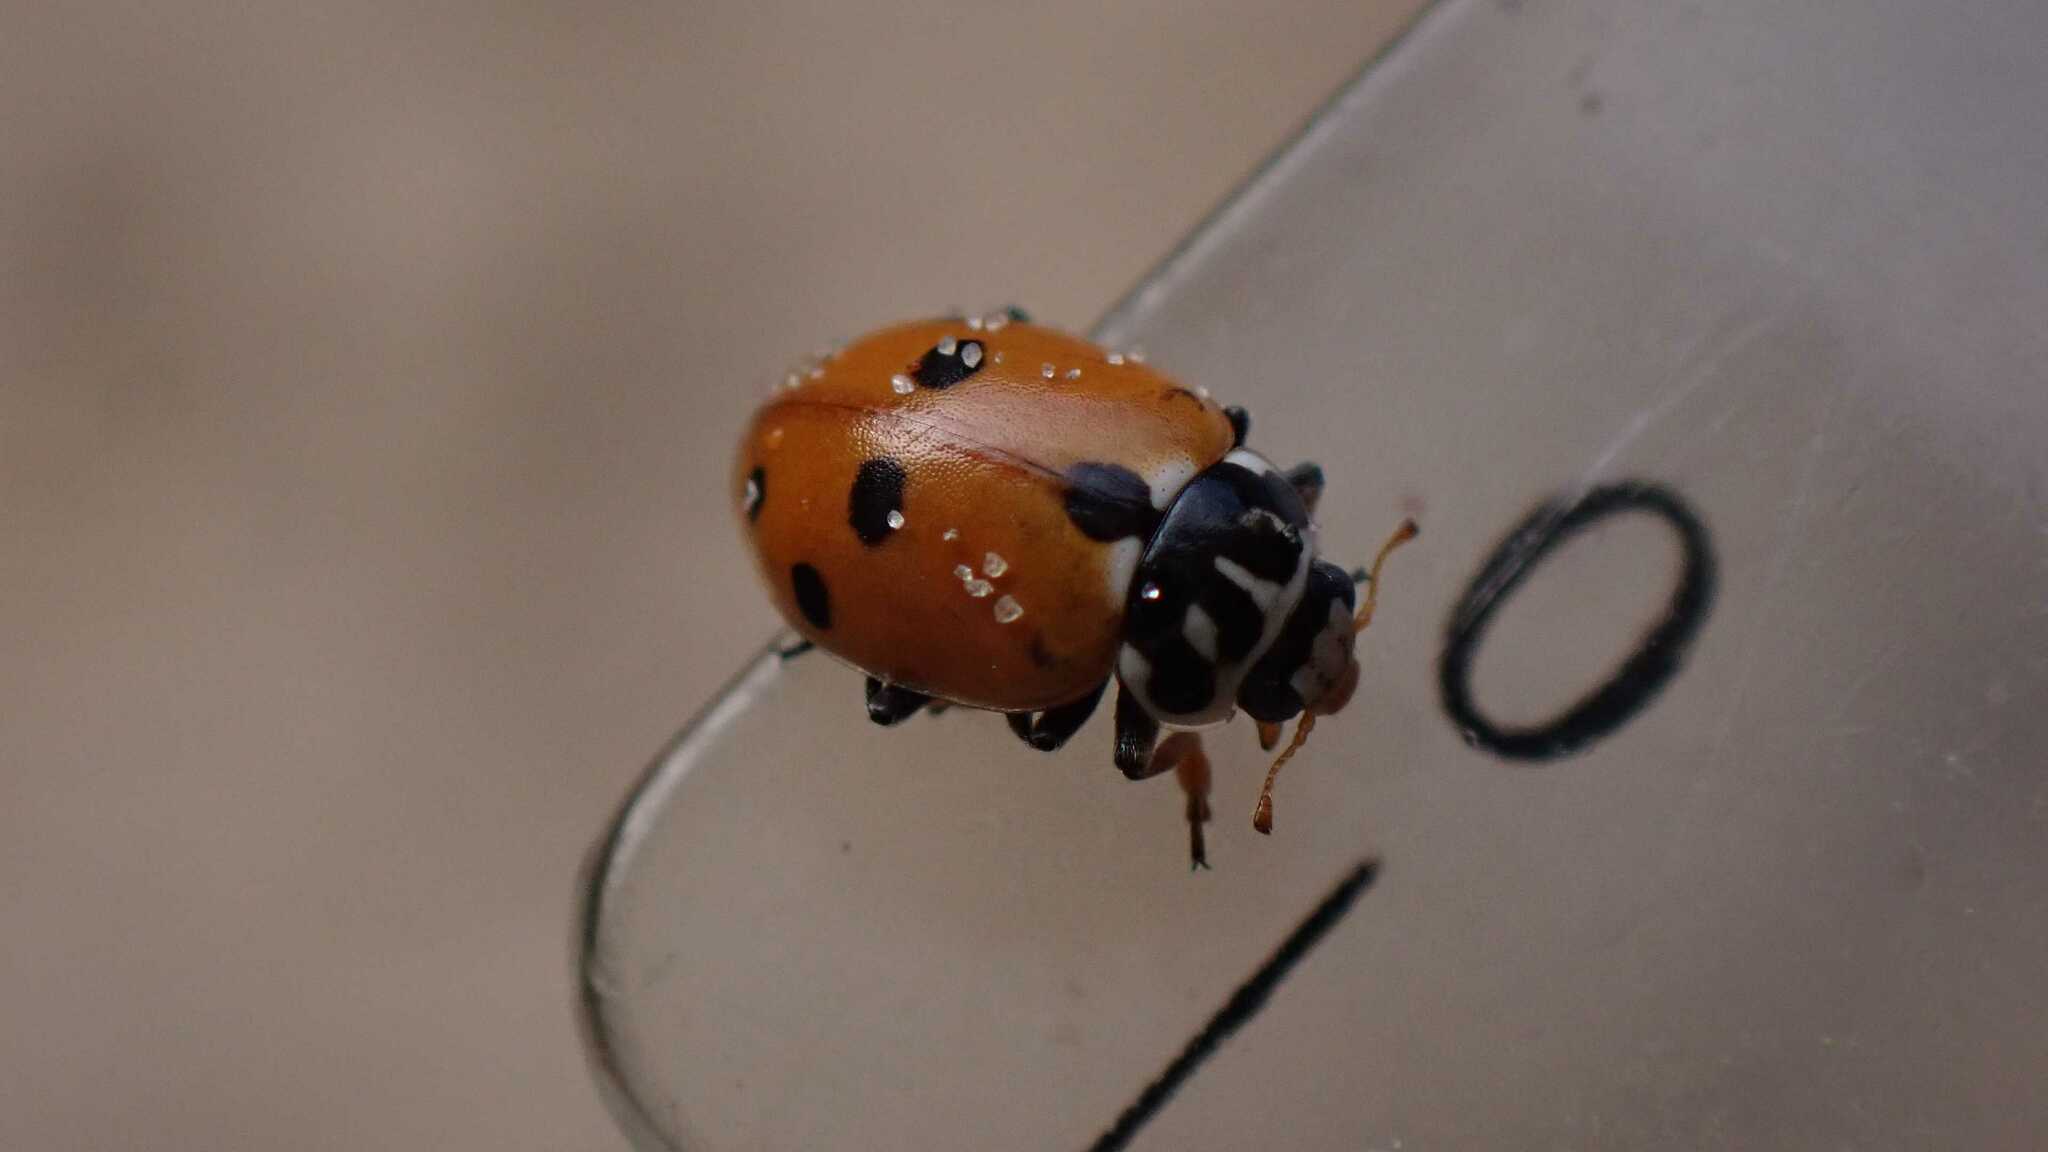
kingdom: Animalia
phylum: Arthropoda
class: Insecta
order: Coleoptera
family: Coccinellidae
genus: Hippodamia
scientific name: Hippodamia variegata
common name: Ladybird beetle
